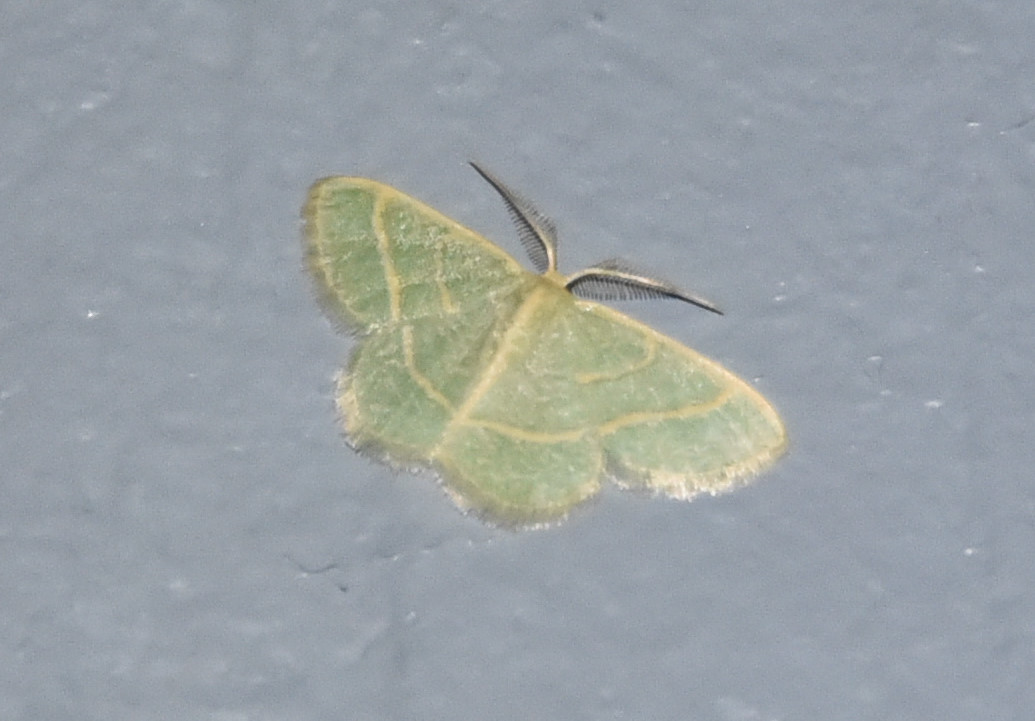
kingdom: Animalia
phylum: Arthropoda
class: Insecta
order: Lepidoptera
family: Geometridae
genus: Chlorochlamys
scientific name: Chlorochlamys chloroleucaria
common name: Blackberry looper
